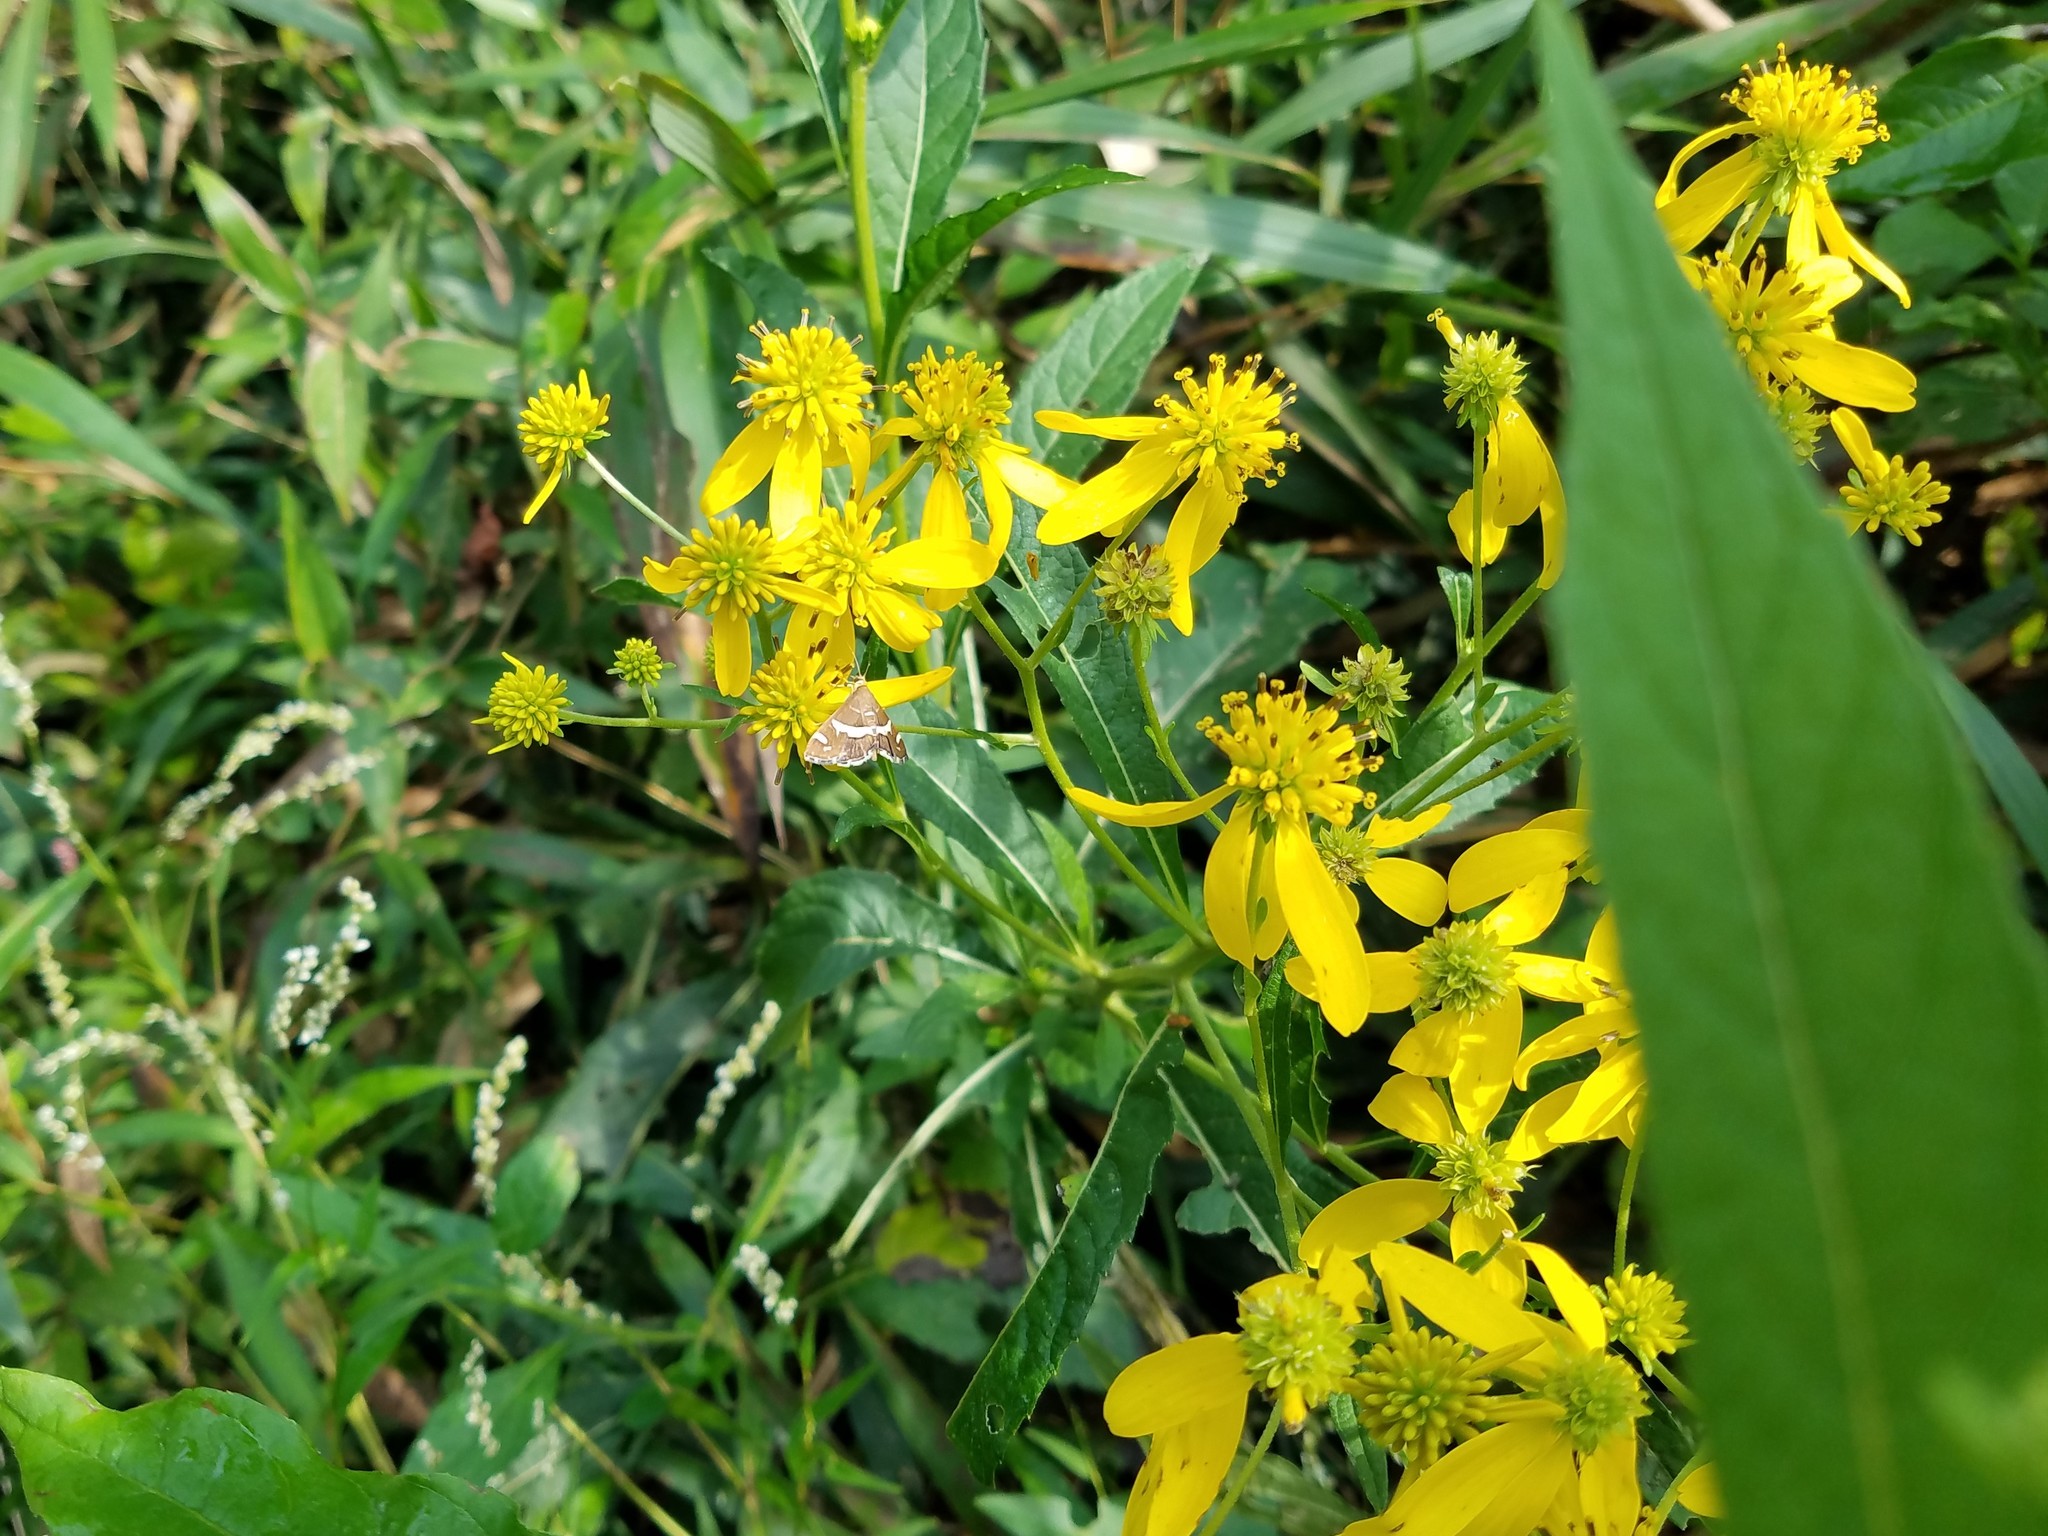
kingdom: Plantae
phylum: Tracheophyta
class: Magnoliopsida
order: Asterales
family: Asteraceae
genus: Verbesina
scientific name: Verbesina alternifolia
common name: Wingstem
